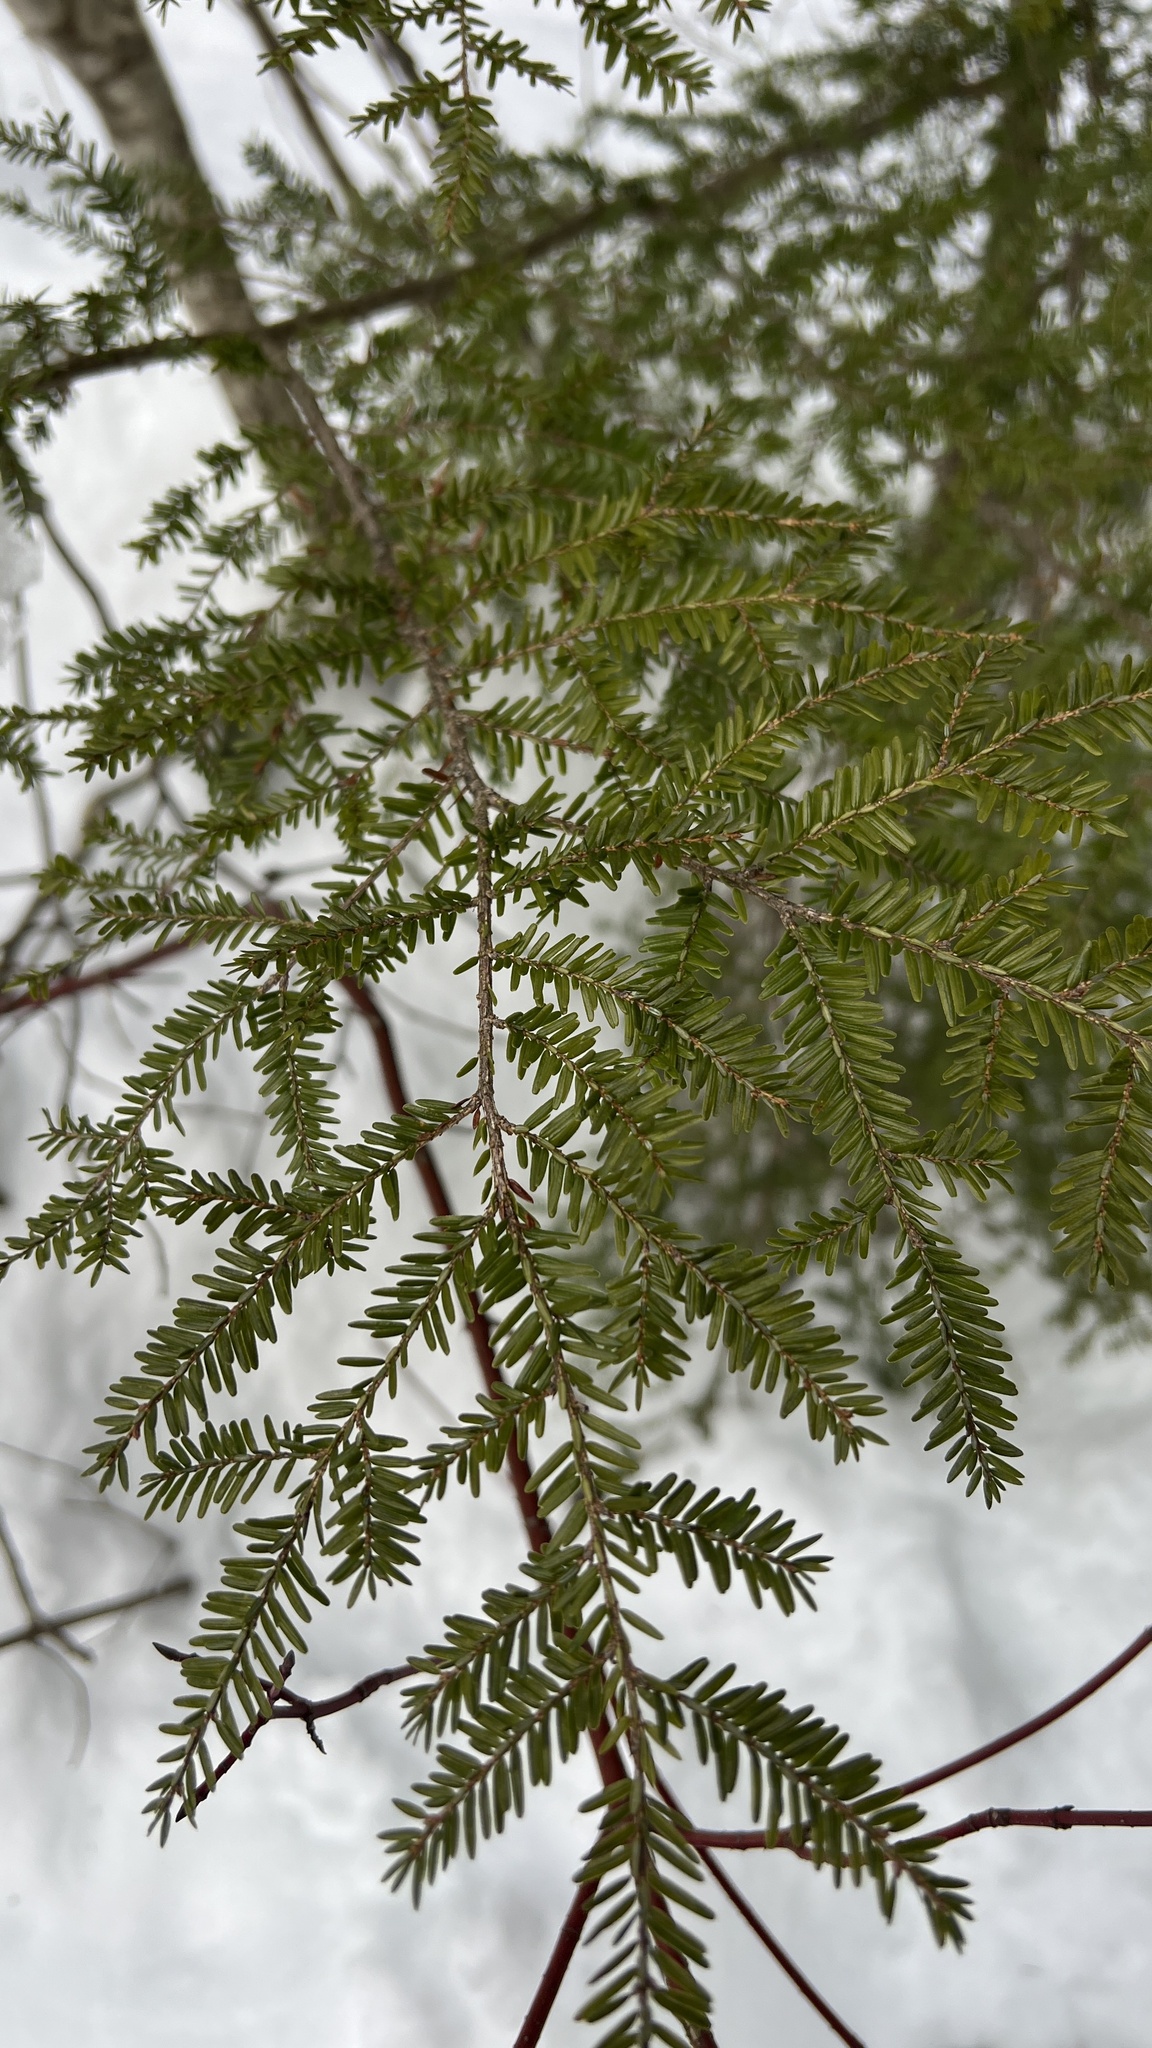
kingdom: Plantae
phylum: Tracheophyta
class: Pinopsida
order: Pinales
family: Pinaceae
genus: Tsuga
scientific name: Tsuga canadensis
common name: Eastern hemlock
